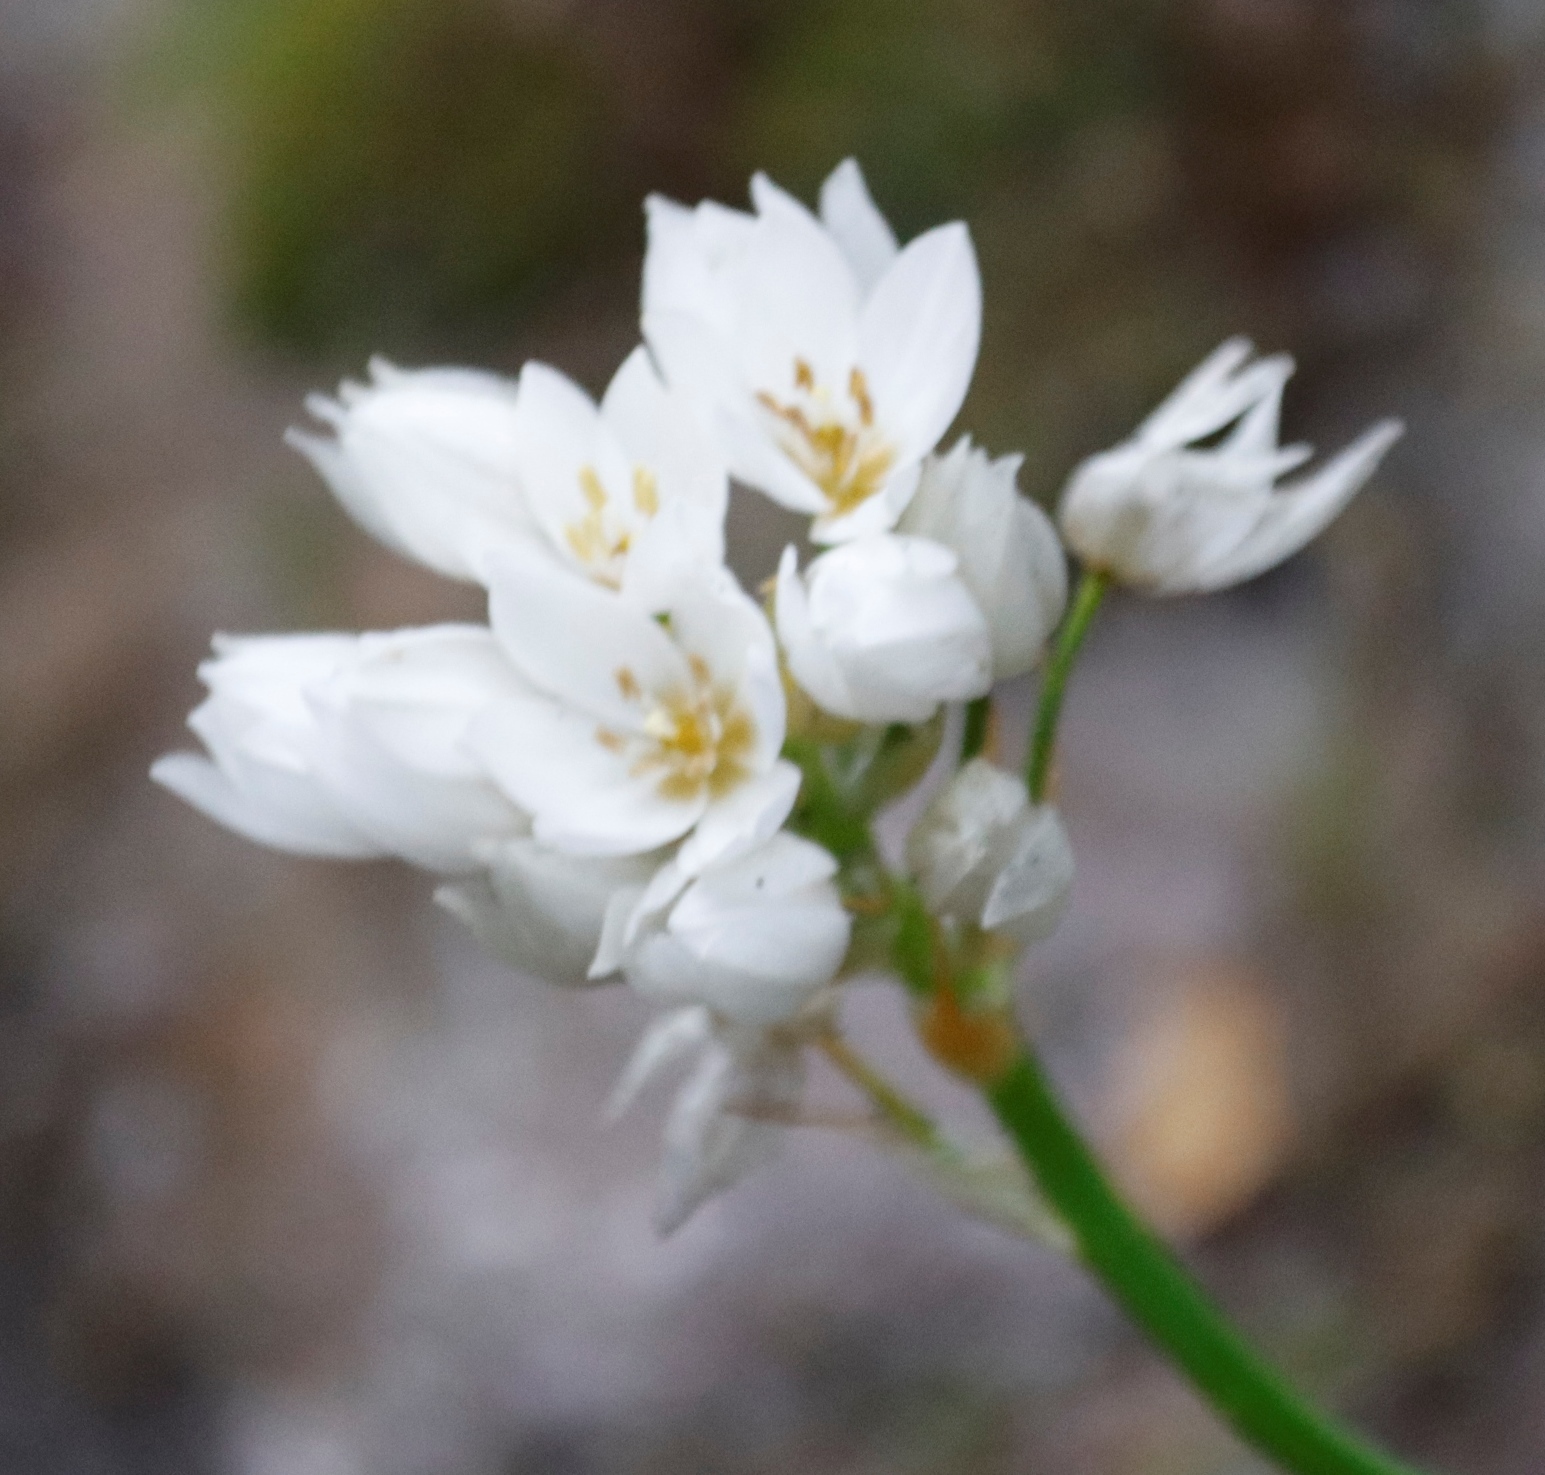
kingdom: Plantae
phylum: Tracheophyta
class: Liliopsida
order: Asparagales
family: Asparagaceae
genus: Ornithogalum
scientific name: Ornithogalum thyrsoides
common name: Chincherinchee
